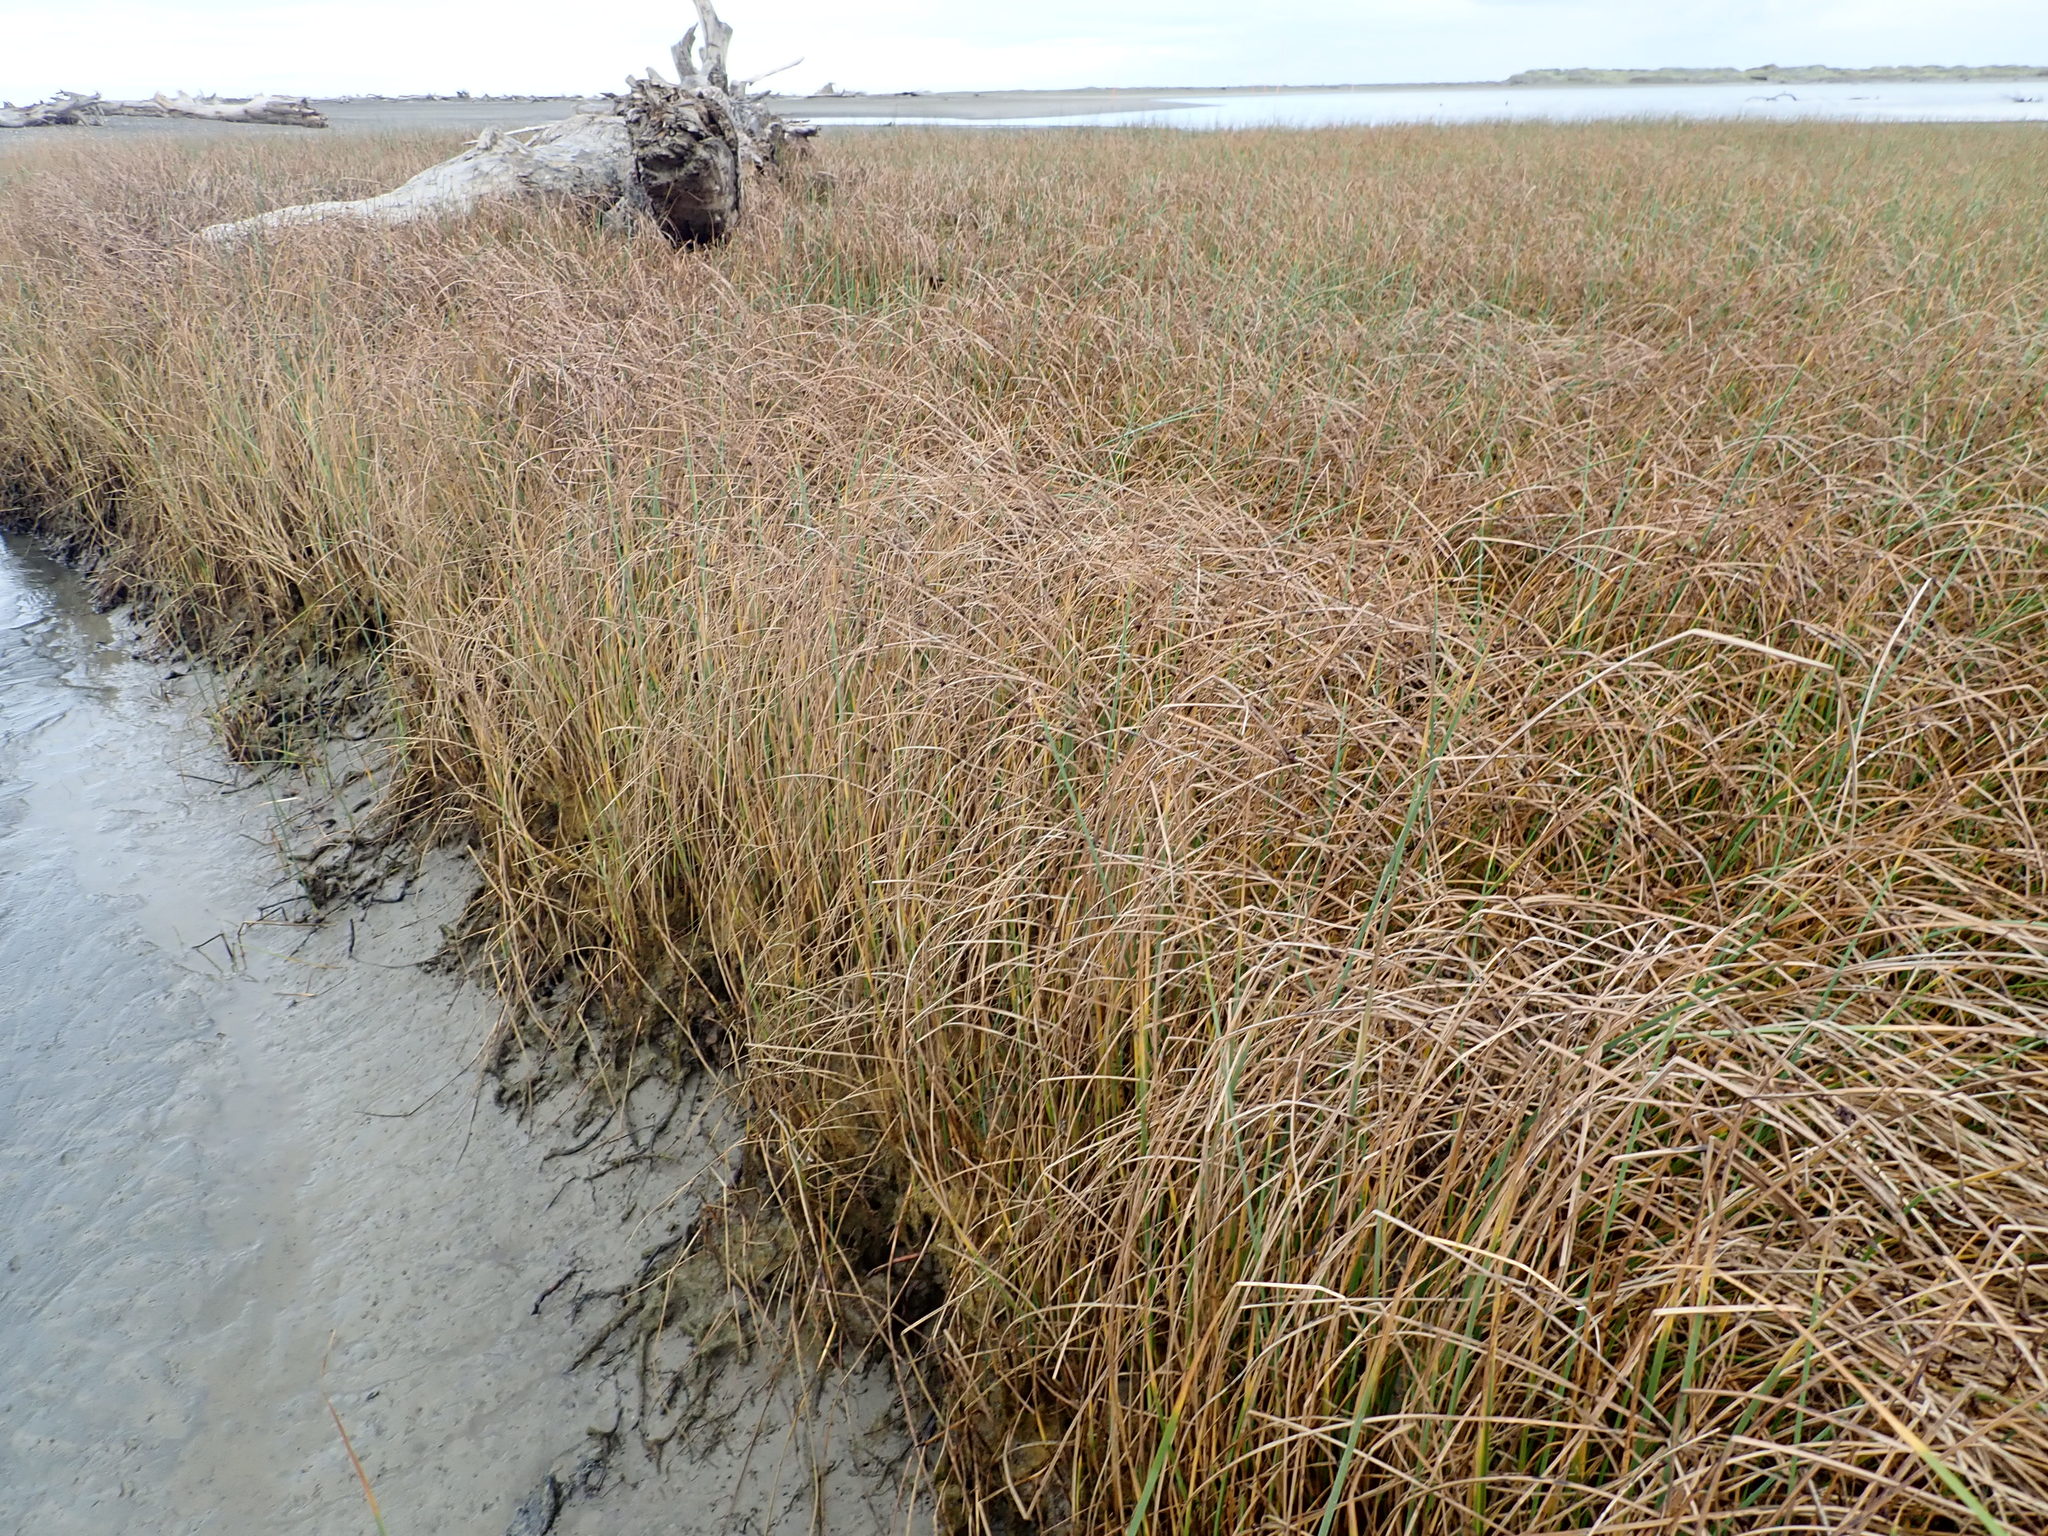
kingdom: Plantae
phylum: Tracheophyta
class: Liliopsida
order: Poales
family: Cyperaceae
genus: Schoenoplectus
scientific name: Schoenoplectus pungens
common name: Sharp club-rush
